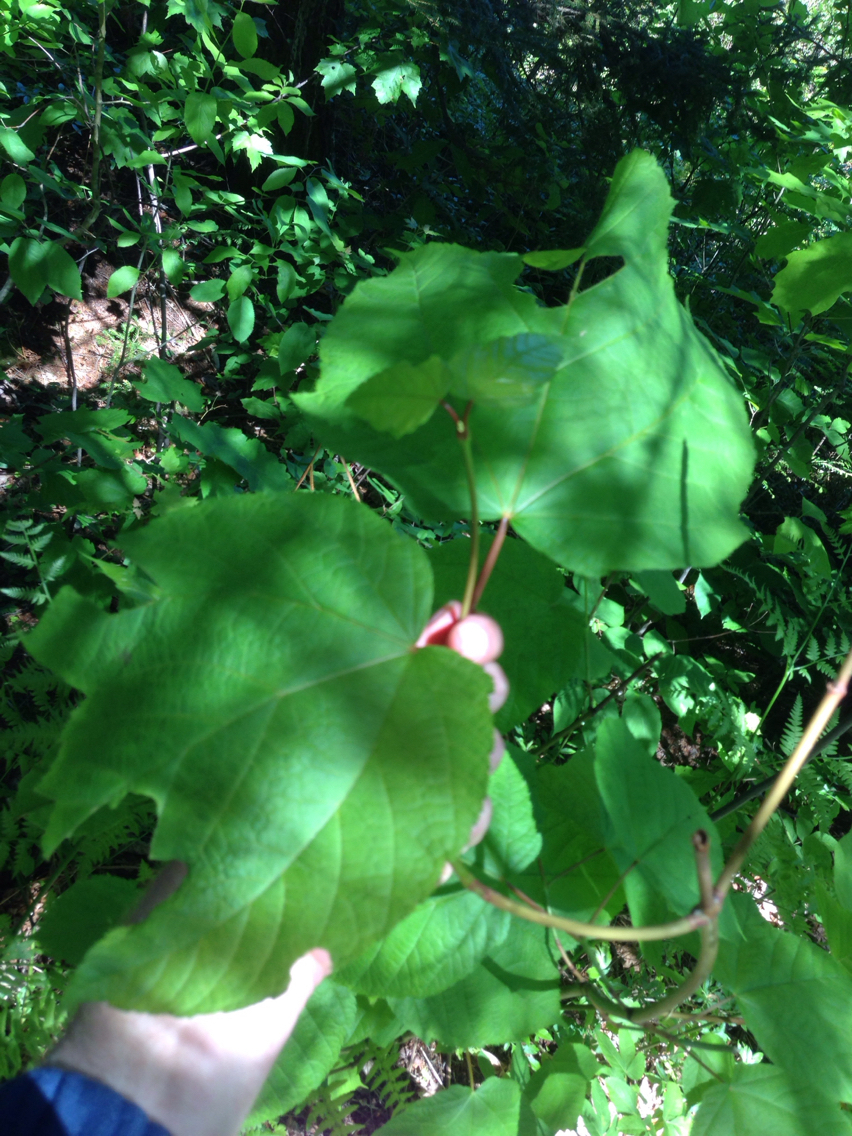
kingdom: Plantae
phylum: Tracheophyta
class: Magnoliopsida
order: Sapindales
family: Sapindaceae
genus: Acer
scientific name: Acer pensylvanicum
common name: Moosewood
